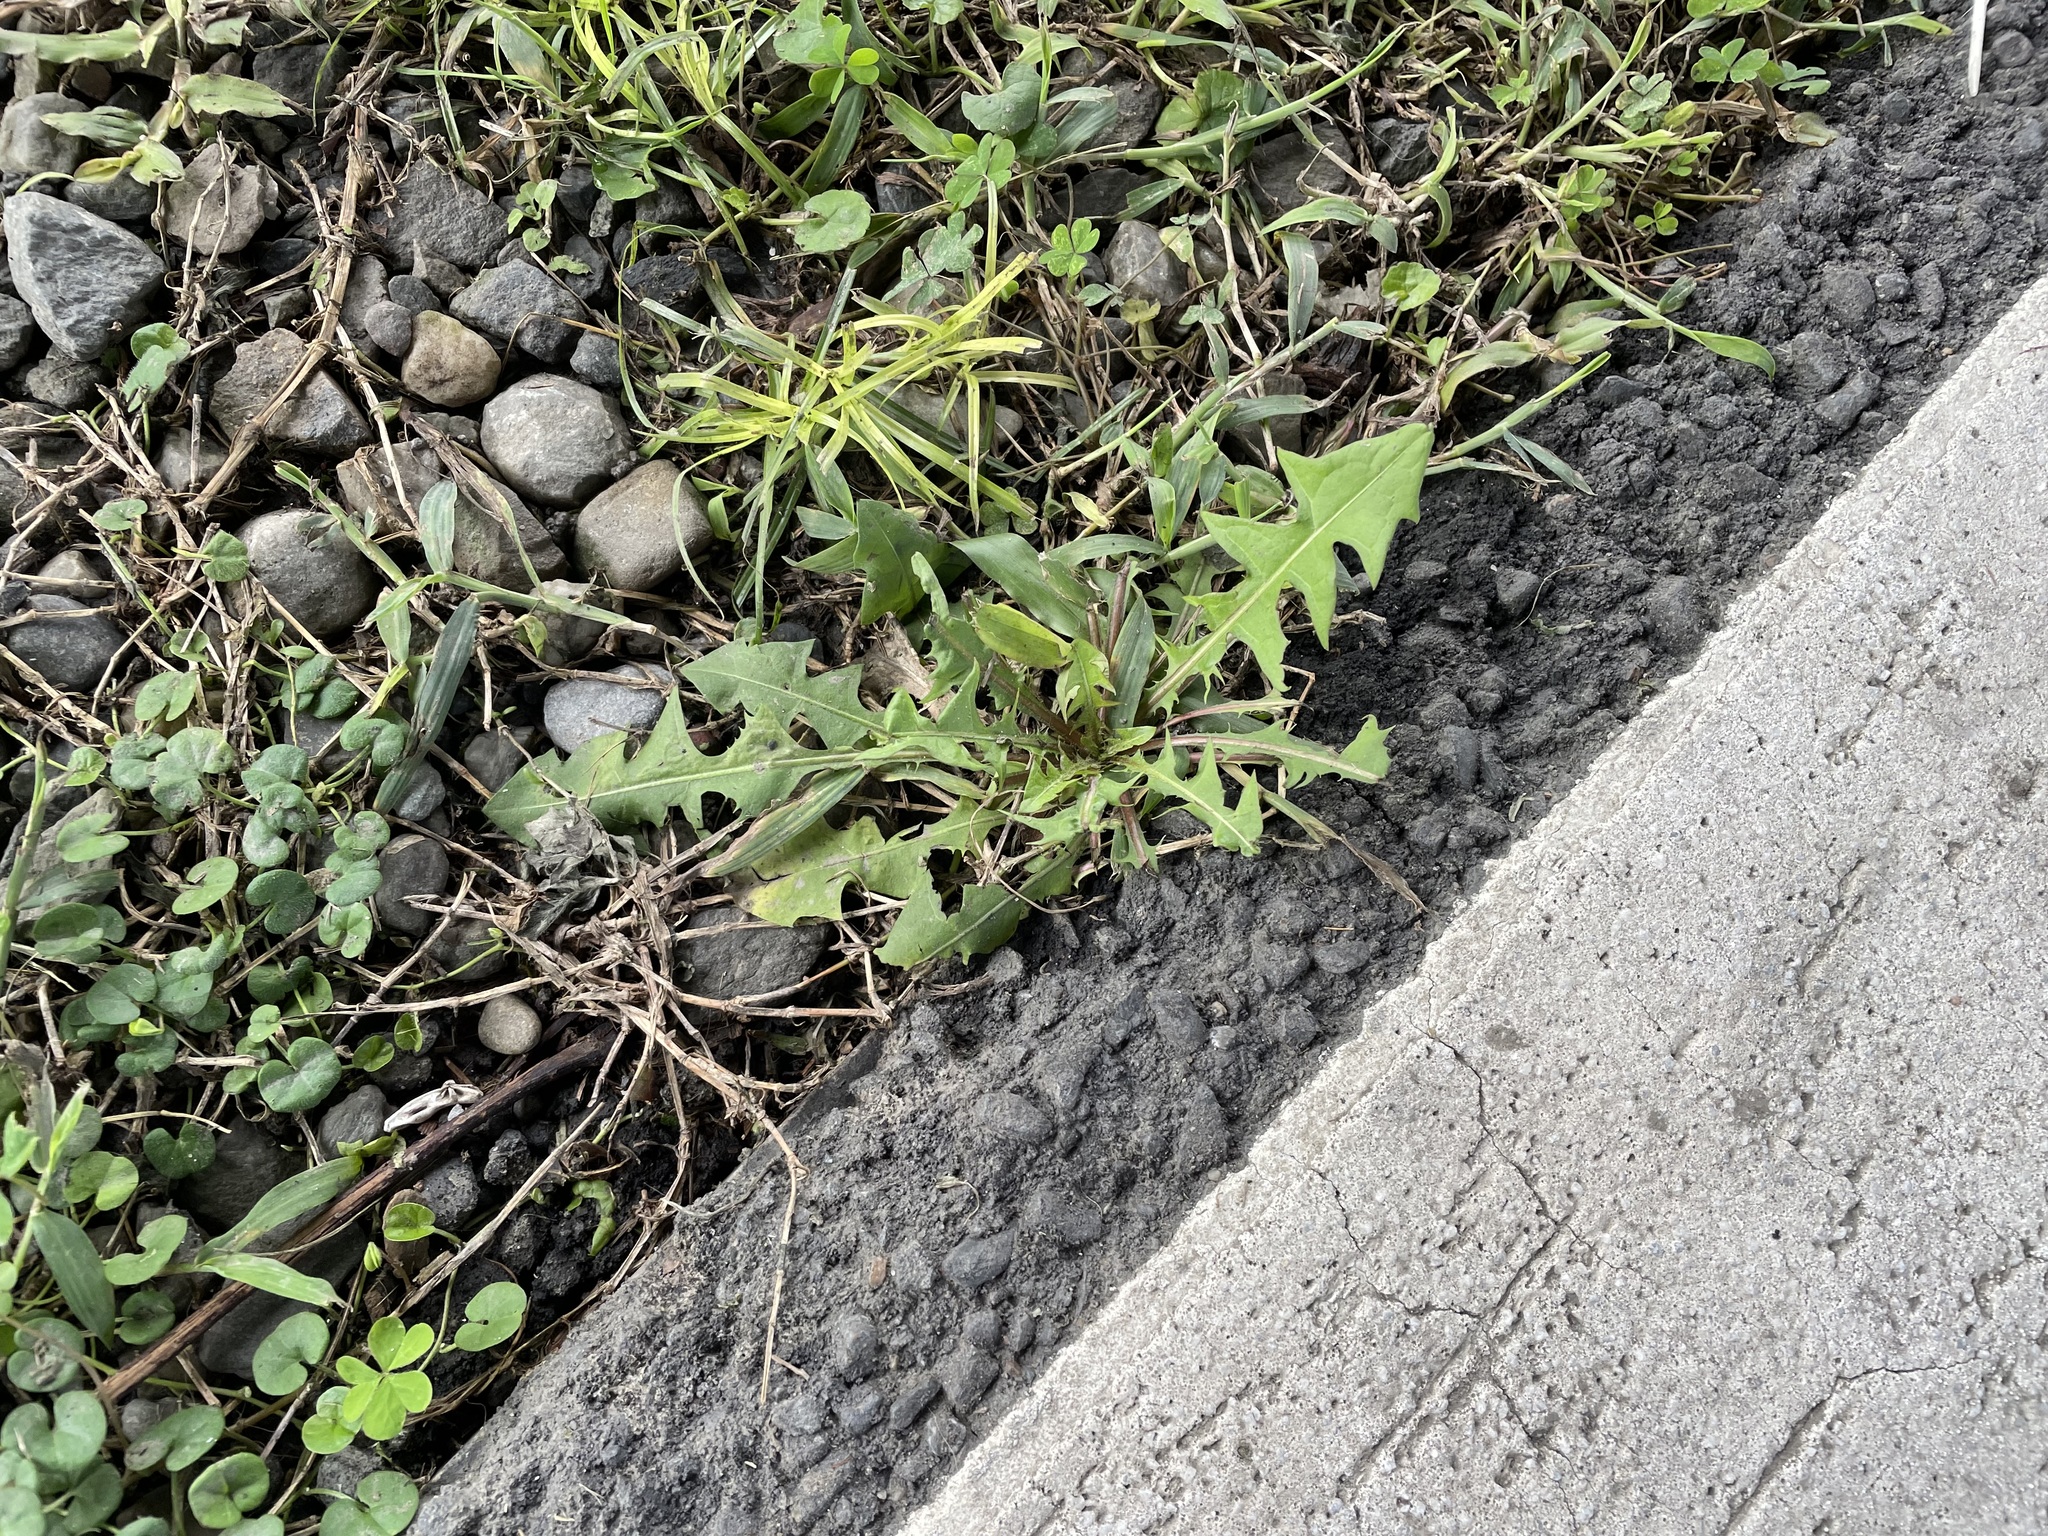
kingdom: Plantae
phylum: Tracheophyta
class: Magnoliopsida
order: Asterales
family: Asteraceae
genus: Taraxacum
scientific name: Taraxacum officinale
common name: Common dandelion
